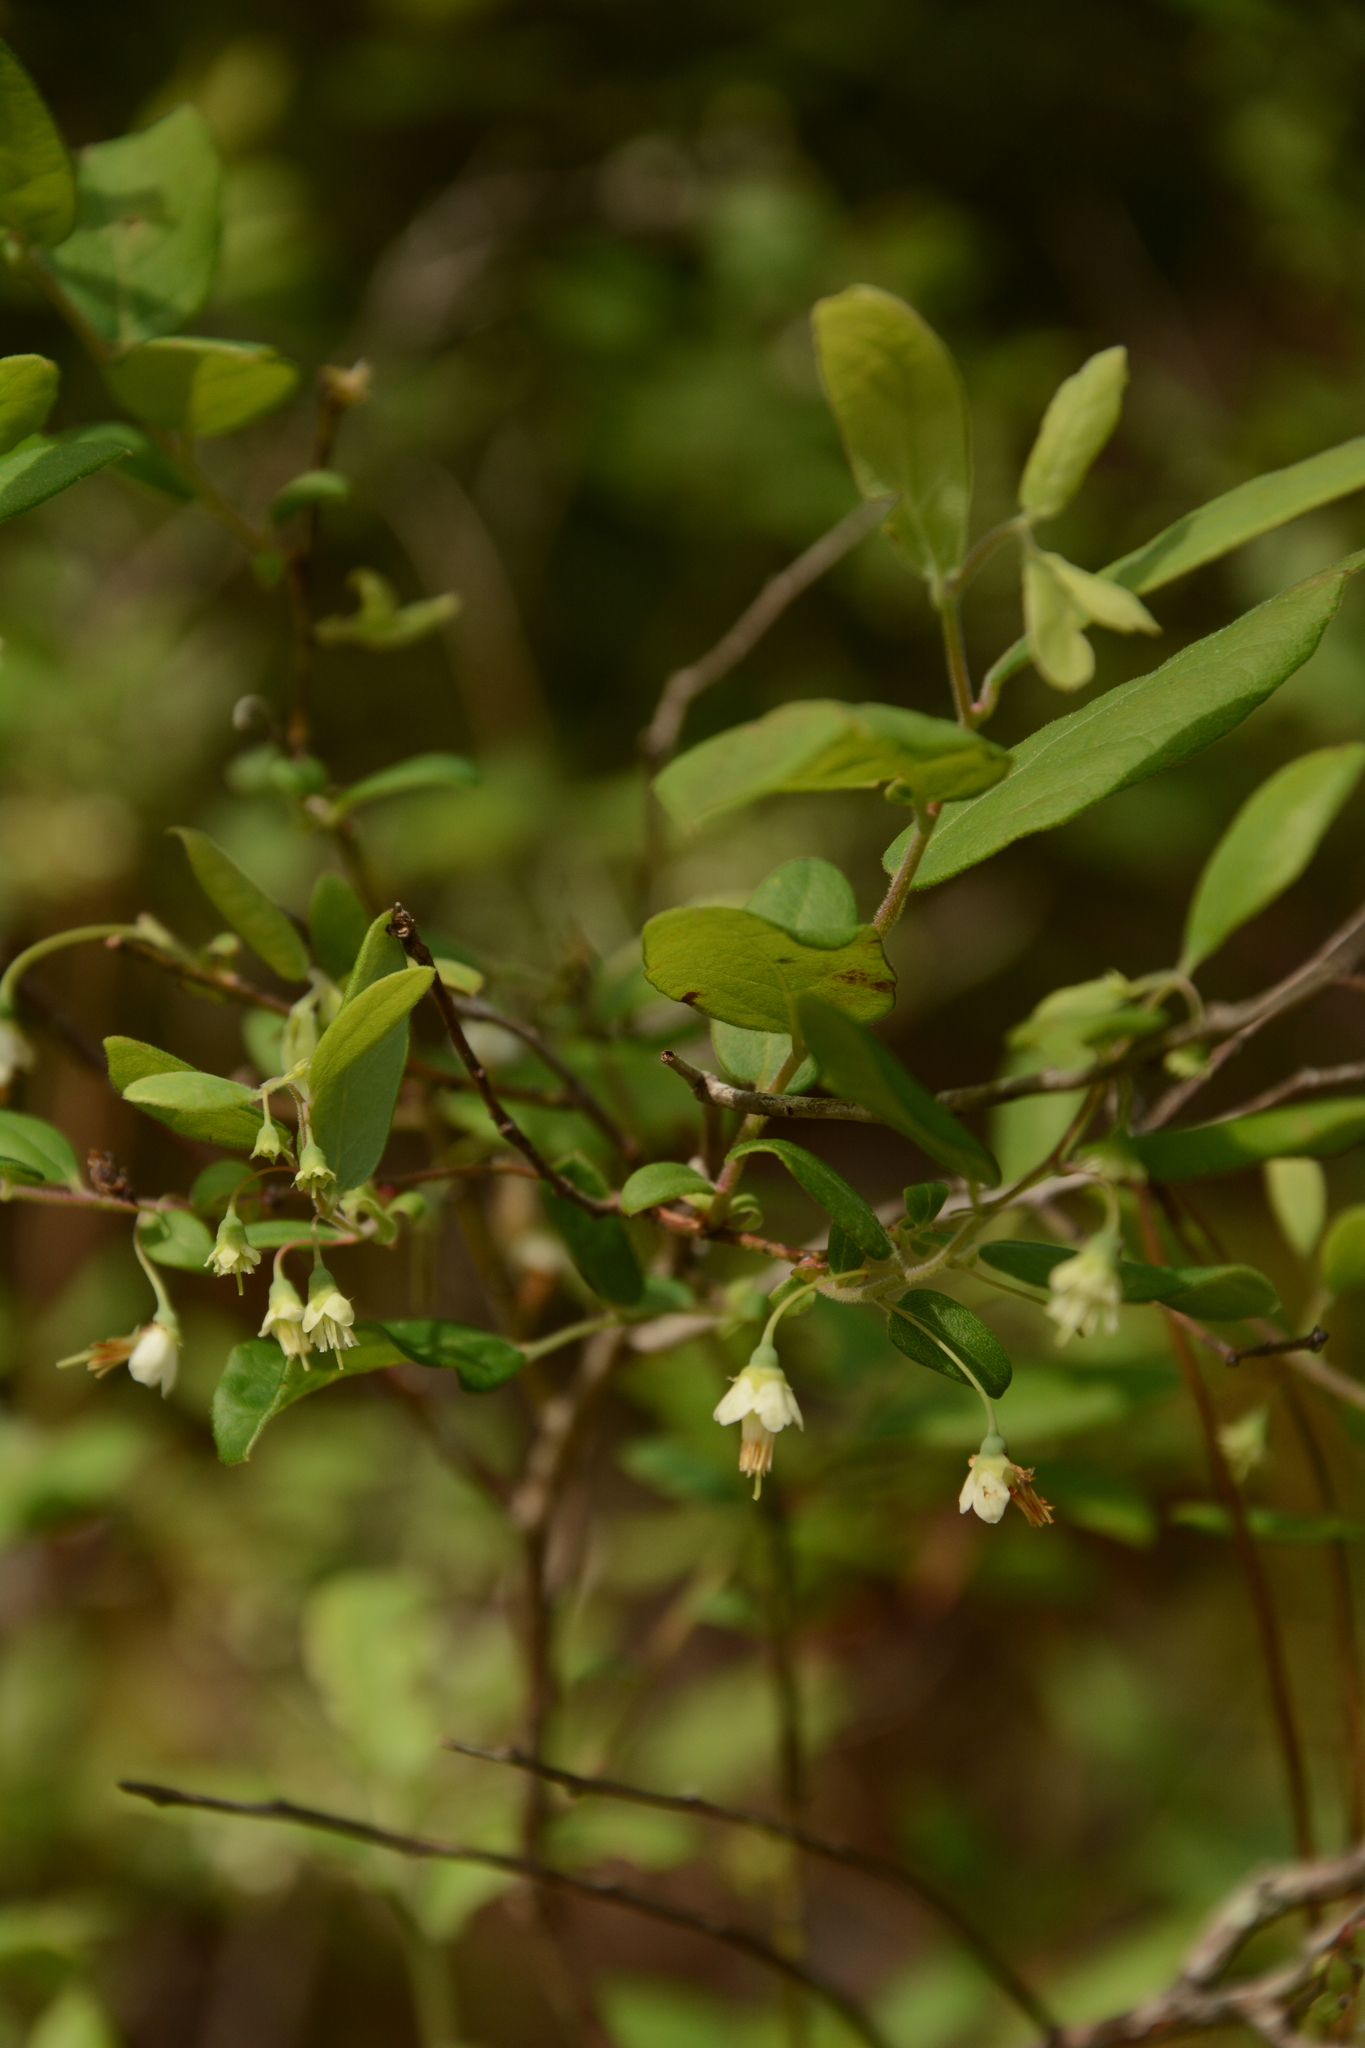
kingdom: Plantae
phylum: Tracheophyta
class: Magnoliopsida
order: Ericales
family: Ericaceae
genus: Vaccinium
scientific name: Vaccinium stamineum
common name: Deerberry
